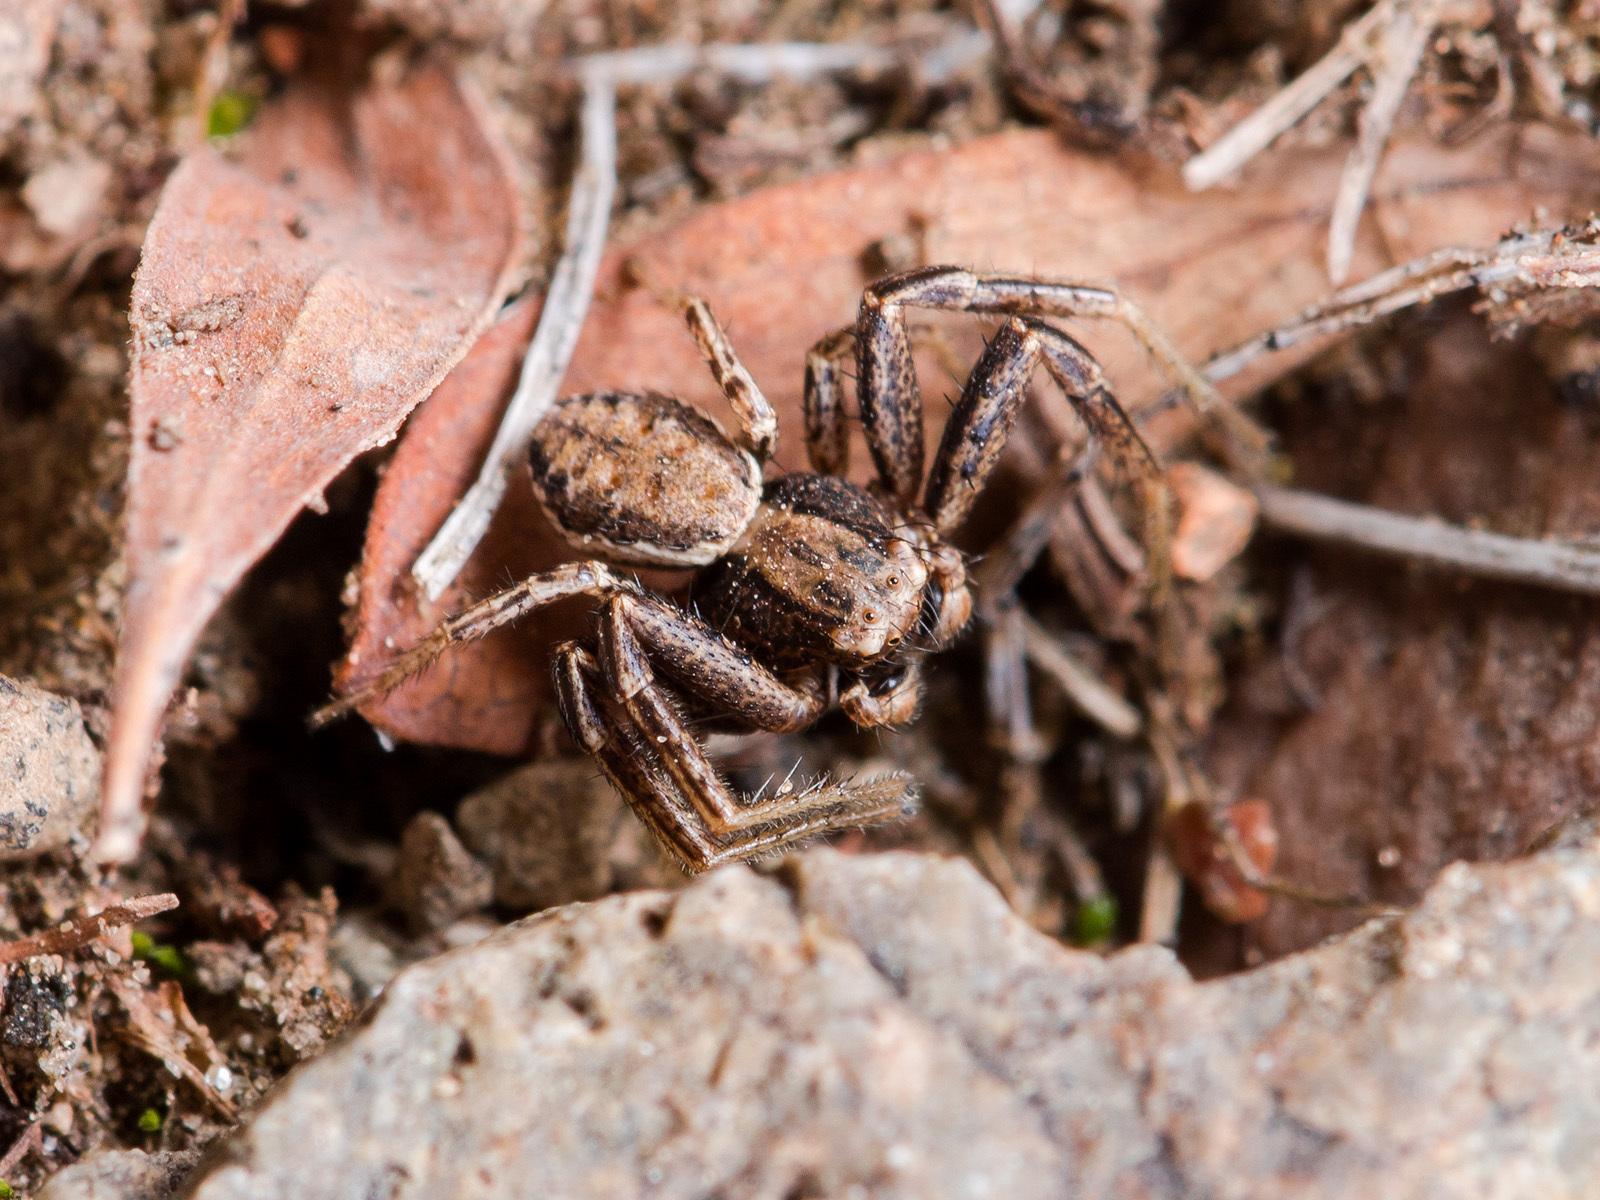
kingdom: Animalia
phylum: Arthropoda
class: Arachnida
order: Araneae
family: Thomisidae
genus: Xysticus
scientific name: Xysticus marmoratus
